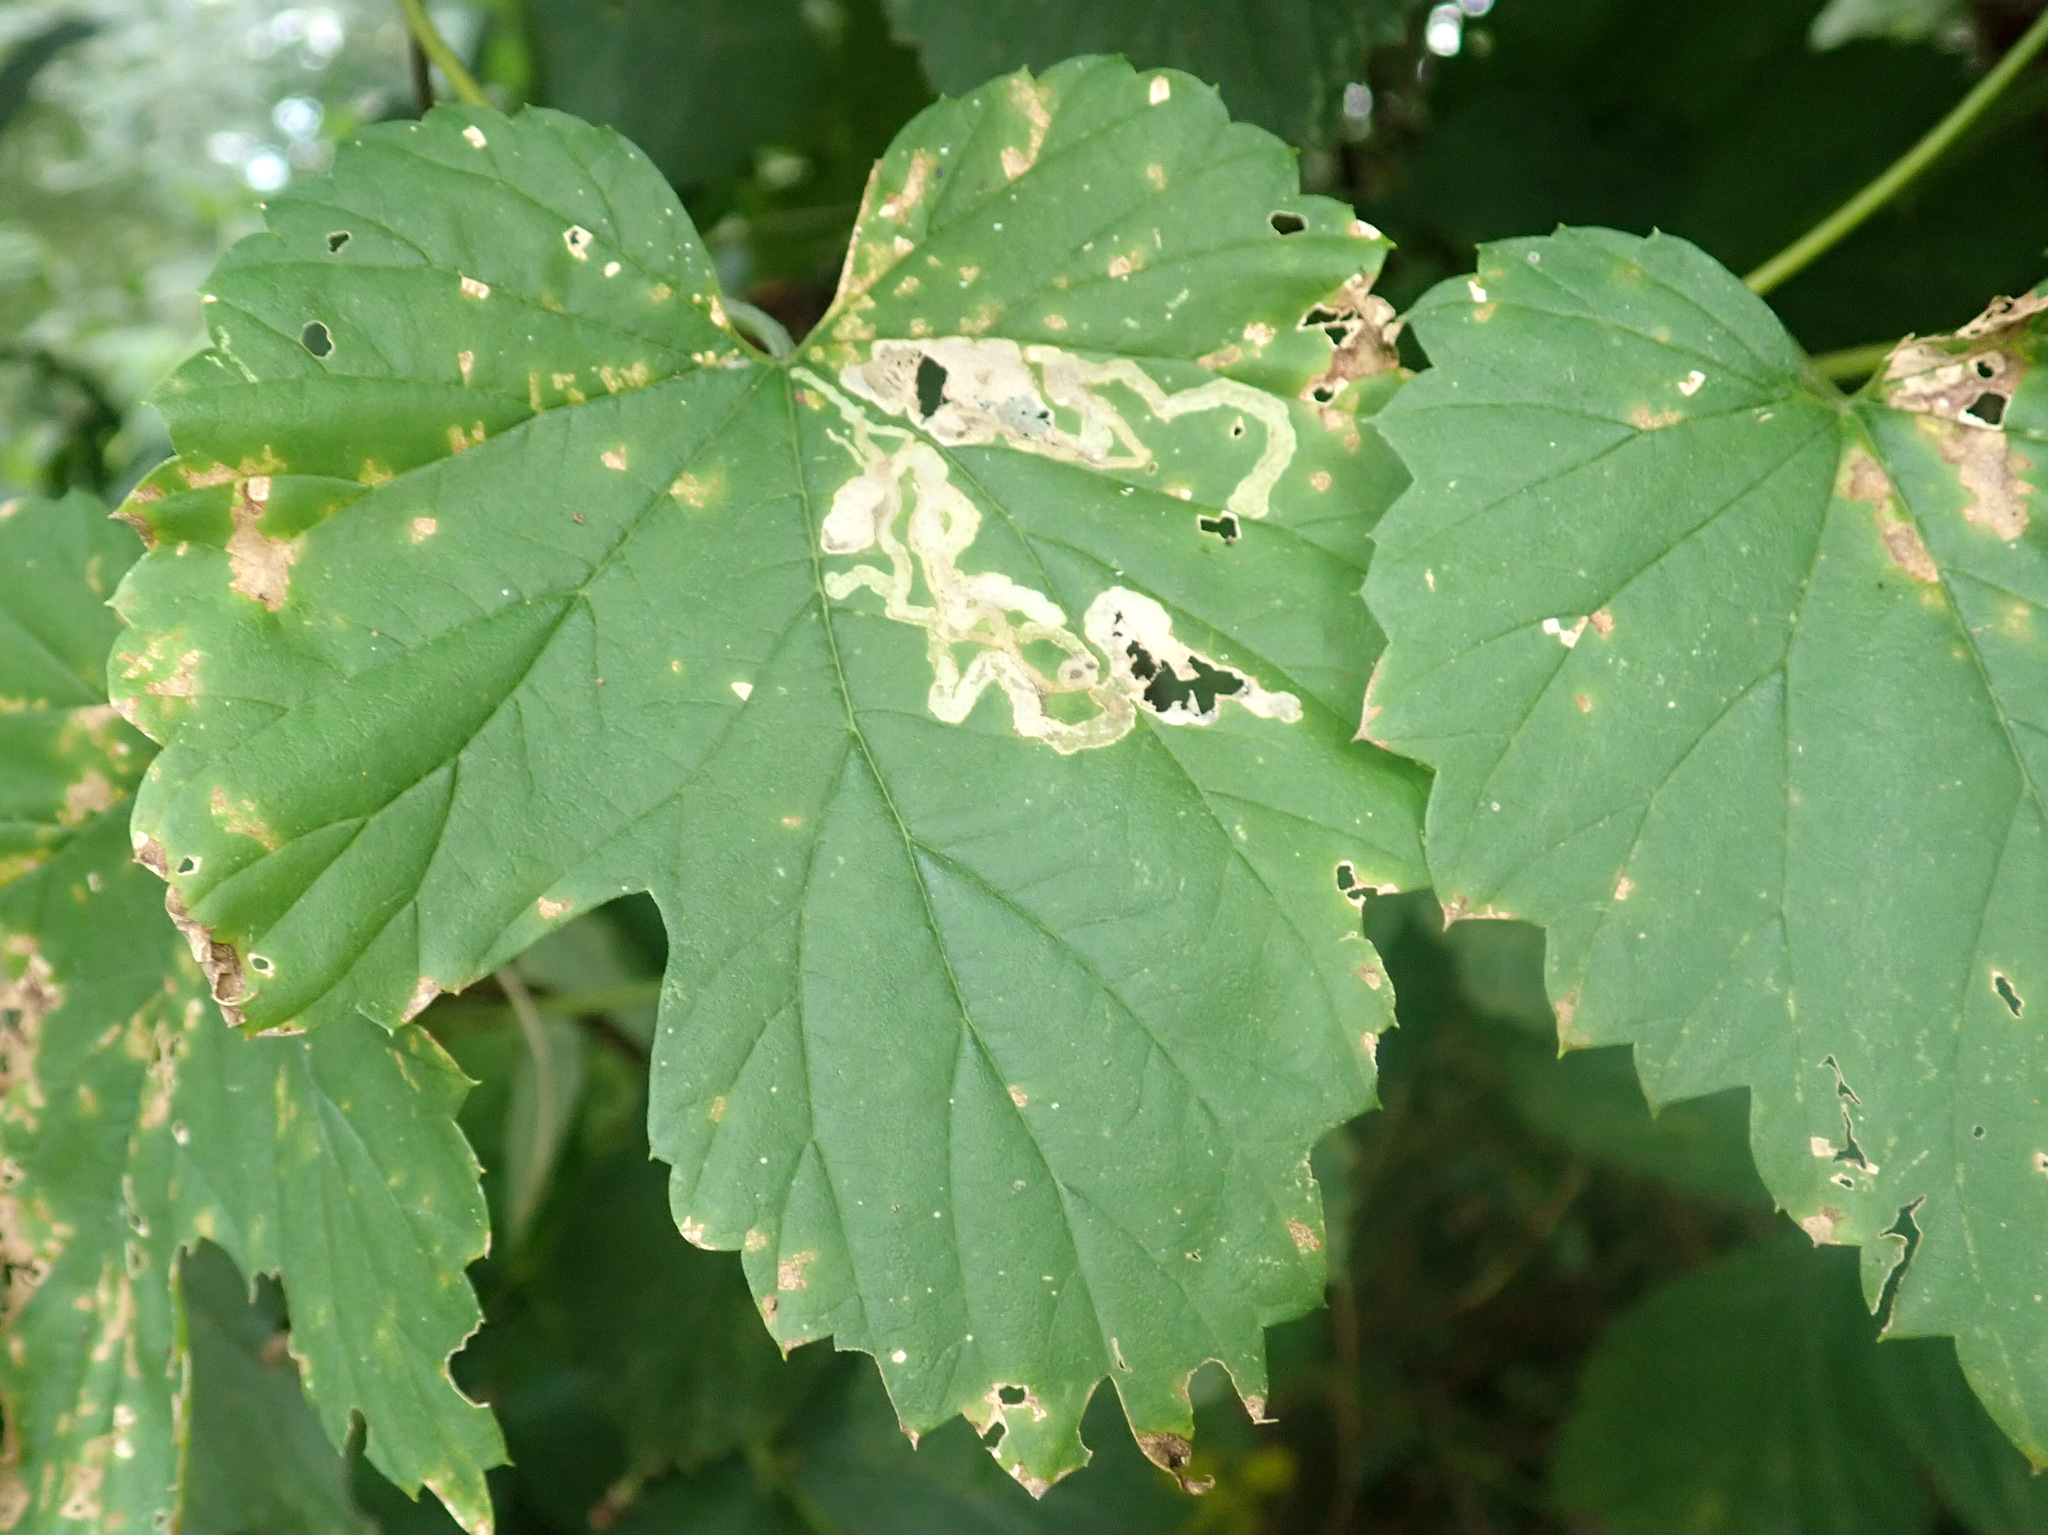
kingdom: Plantae
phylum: Tracheophyta
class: Magnoliopsida
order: Rosales
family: Cannabaceae
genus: Humulus
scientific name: Humulus lupulus
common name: Hop
